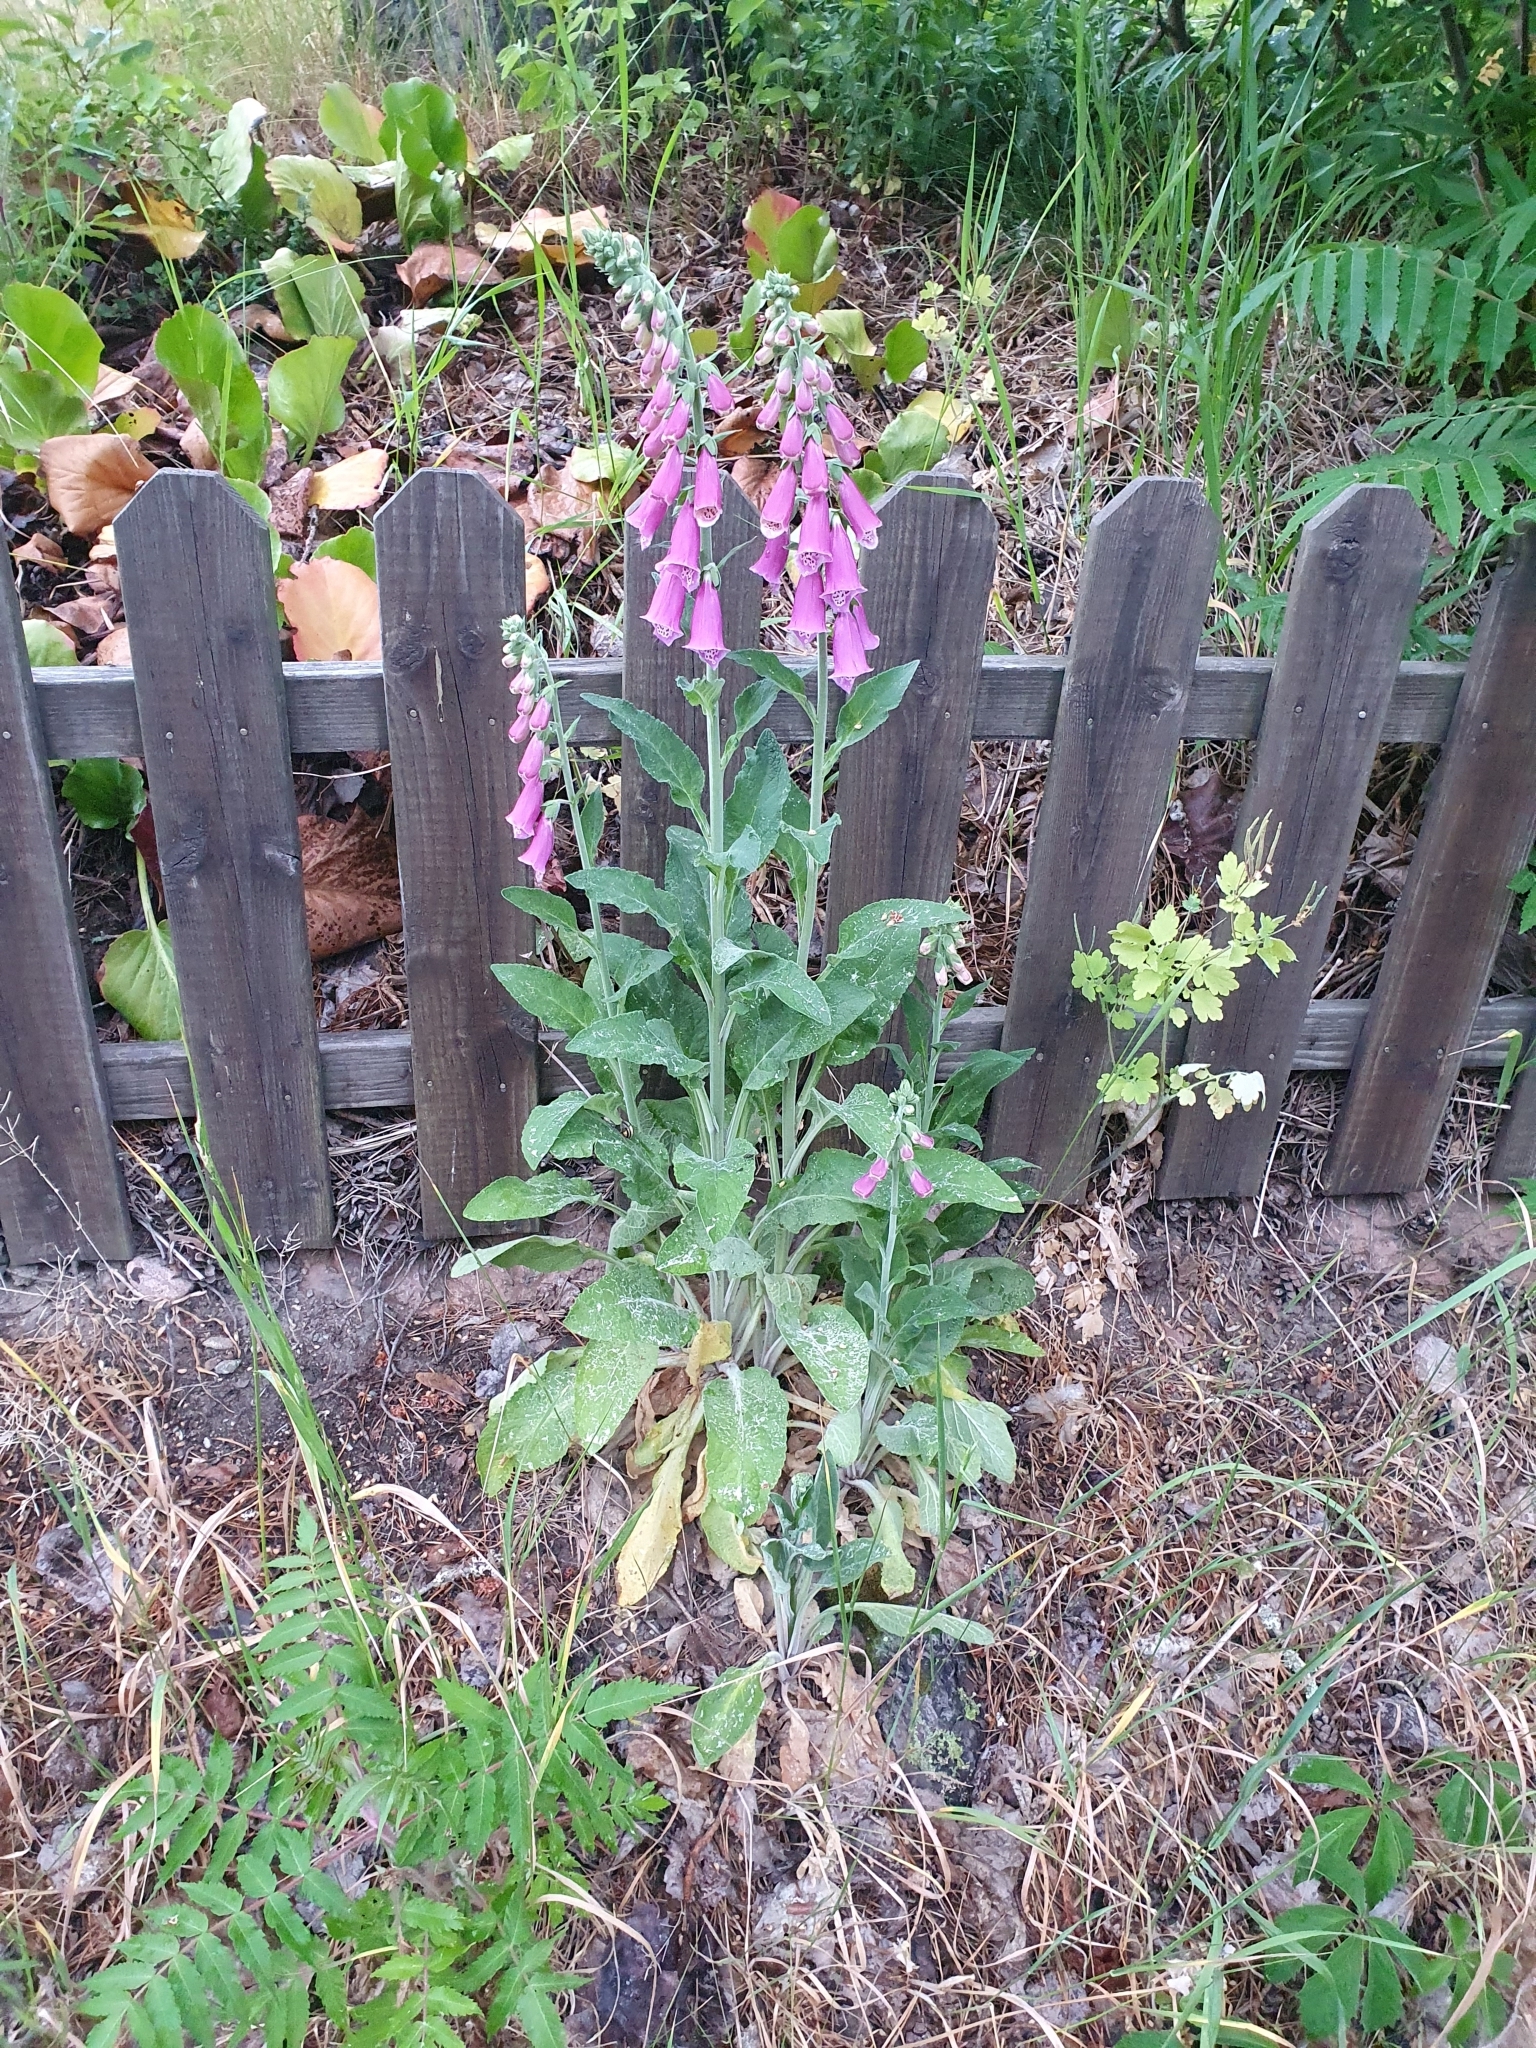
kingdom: Plantae
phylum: Tracheophyta
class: Magnoliopsida
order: Lamiales
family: Plantaginaceae
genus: Digitalis
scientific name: Digitalis purpurea
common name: Foxglove
